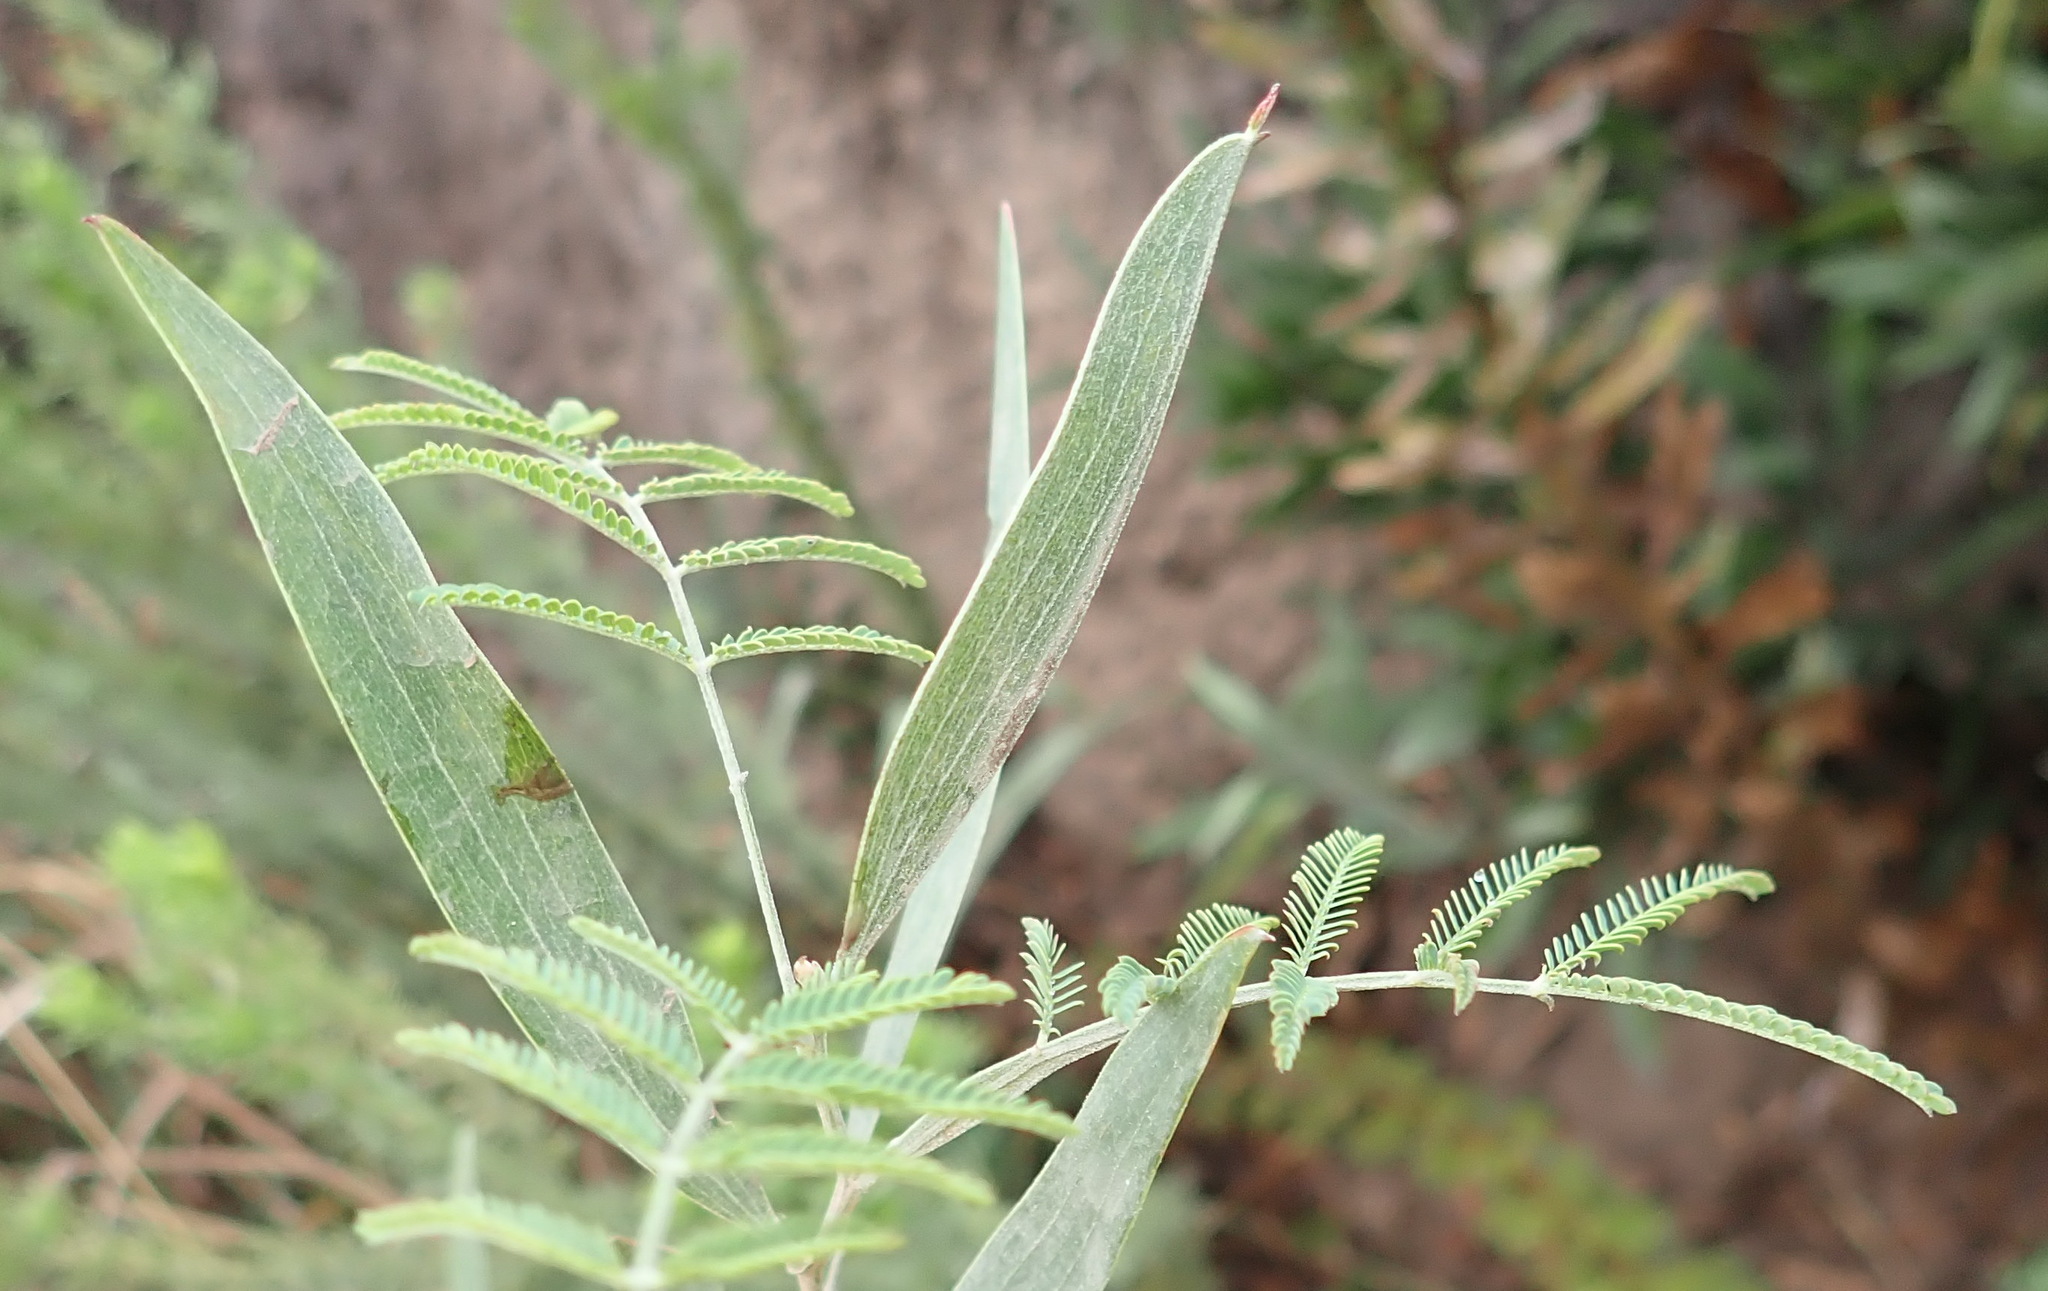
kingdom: Plantae
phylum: Tracheophyta
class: Magnoliopsida
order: Fabales
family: Fabaceae
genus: Acacia
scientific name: Acacia melanoxylon
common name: Blackwood
